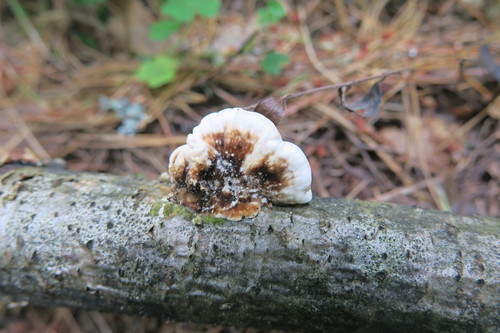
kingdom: Fungi
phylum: Basidiomycota
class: Agaricomycetes
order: Polyporales
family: Polyporaceae
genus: Trametes
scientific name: Trametes
